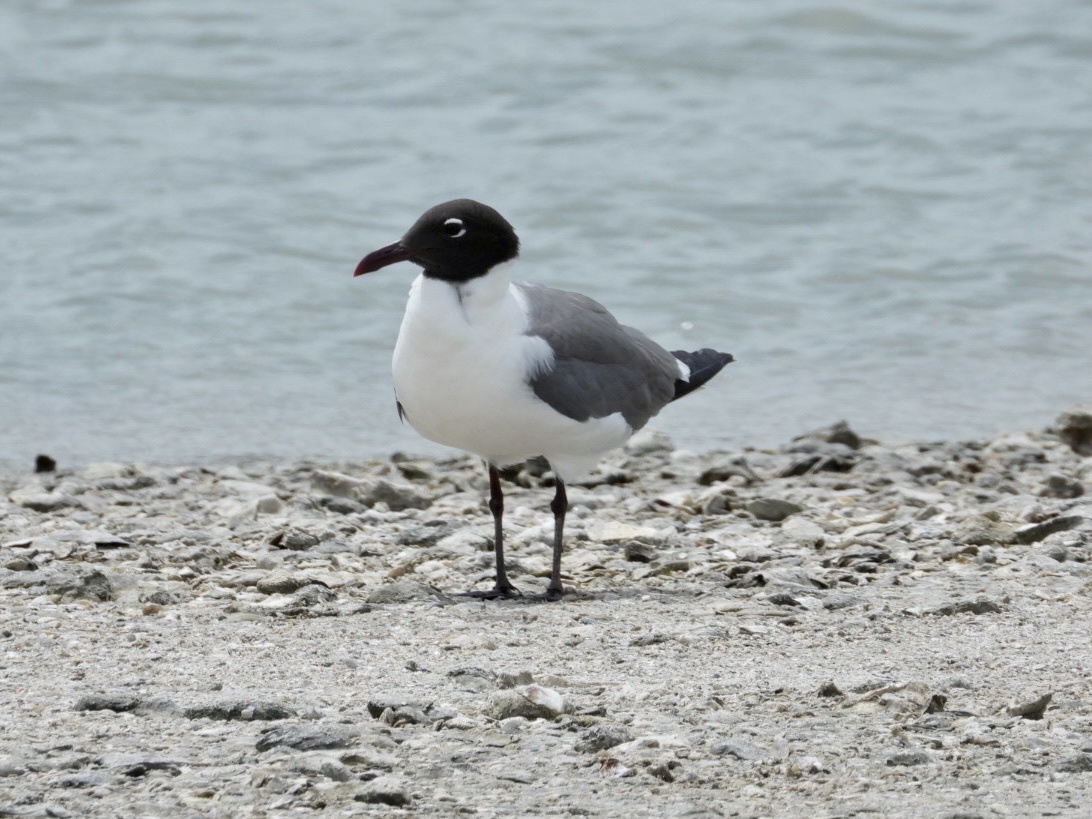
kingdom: Animalia
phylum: Chordata
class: Aves
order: Charadriiformes
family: Laridae
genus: Leucophaeus
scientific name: Leucophaeus atricilla
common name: Laughing gull
